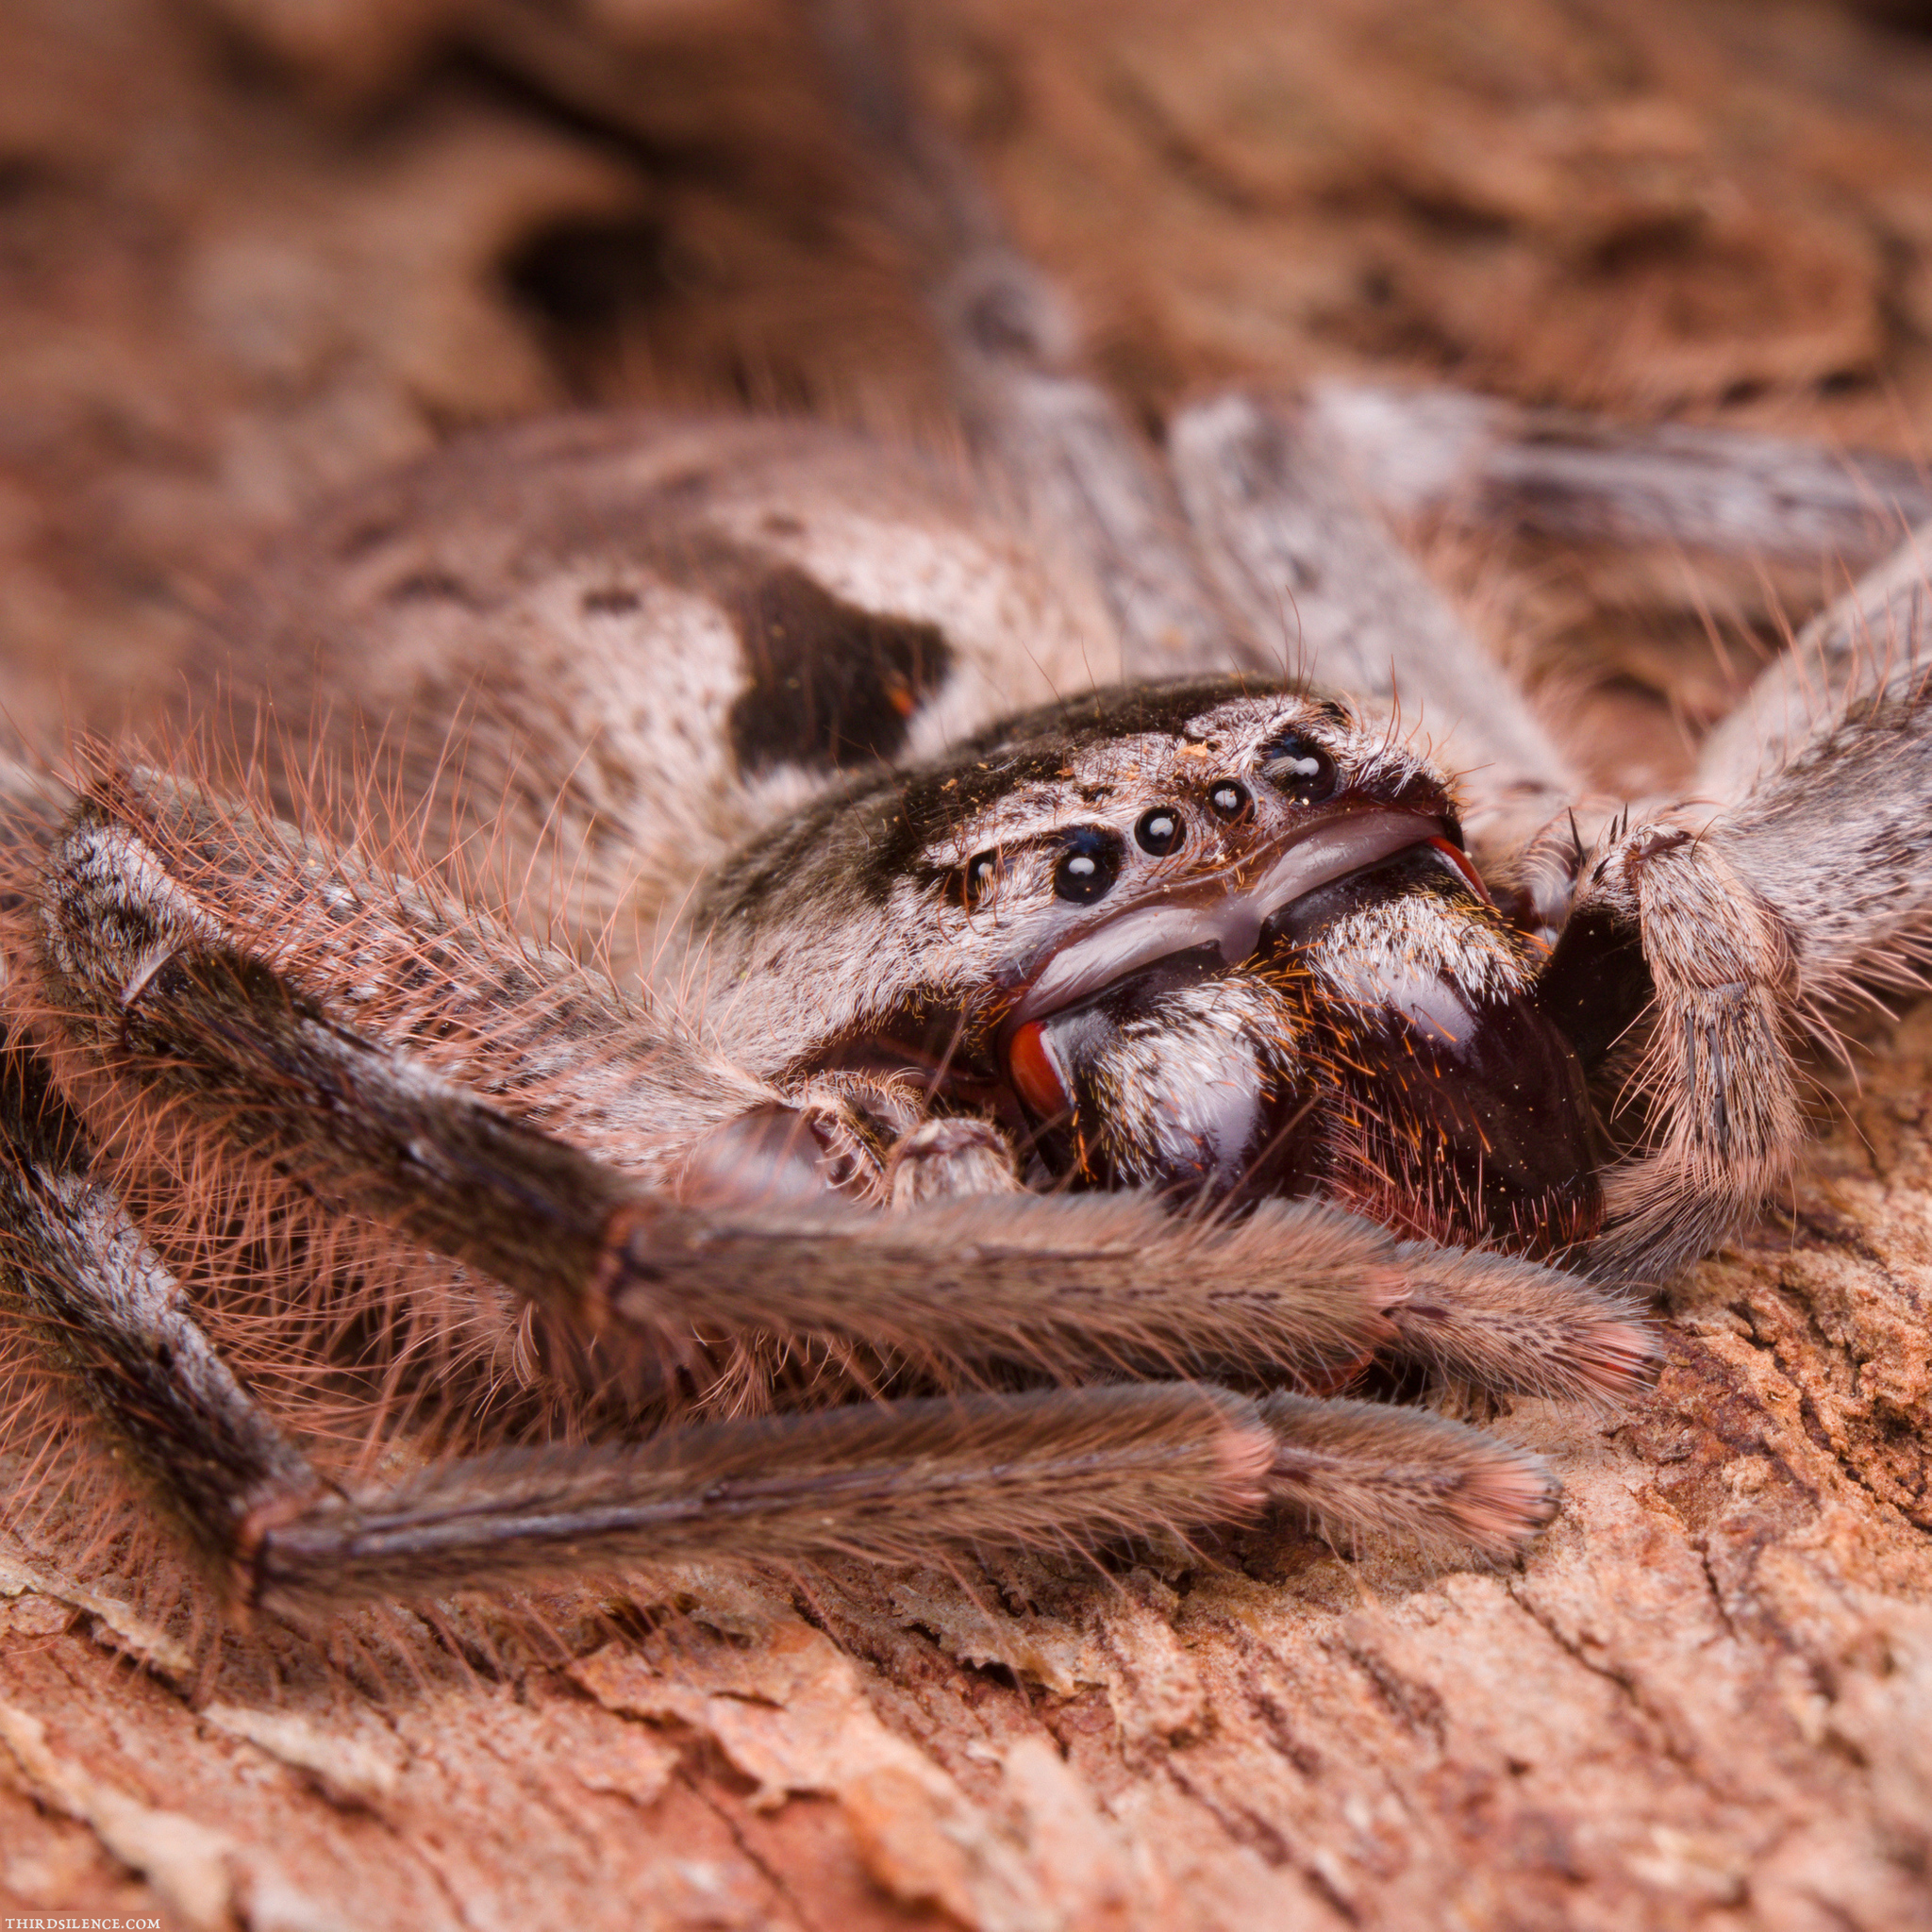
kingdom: Animalia
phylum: Arthropoda
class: Arachnida
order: Araneae
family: Sparassidae
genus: Isopeda
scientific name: Isopeda montana
